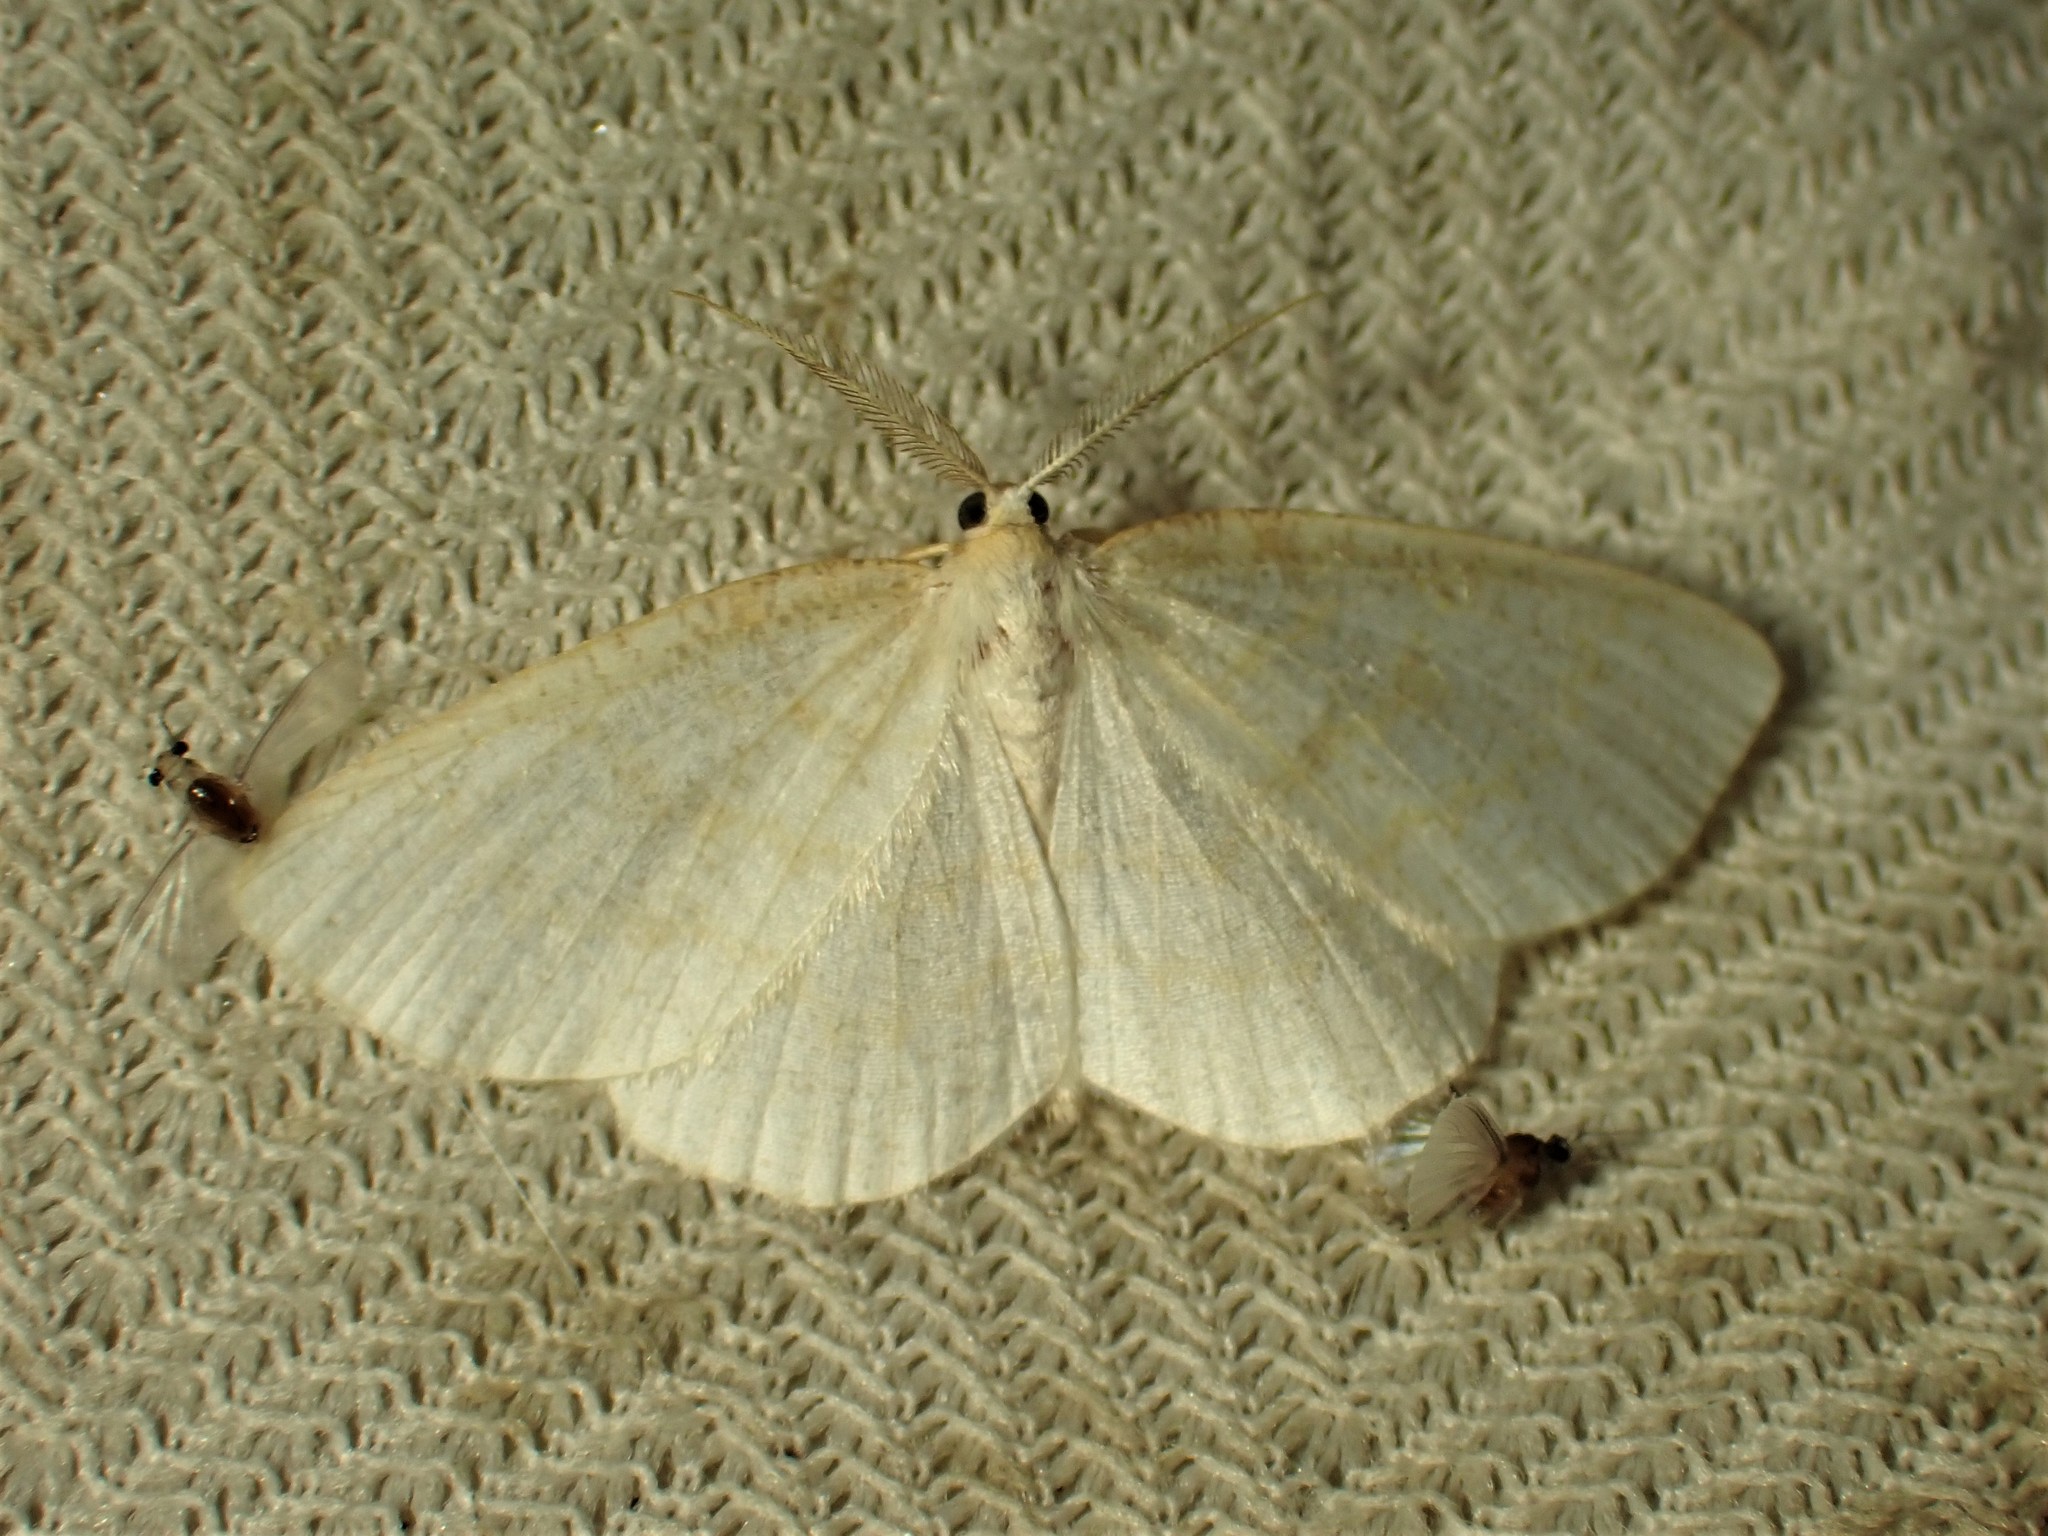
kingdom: Animalia
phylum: Arthropoda
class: Insecta
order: Lepidoptera
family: Geometridae
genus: Cabera
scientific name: Cabera erythemaria
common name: Yellow-dusted cream moth
